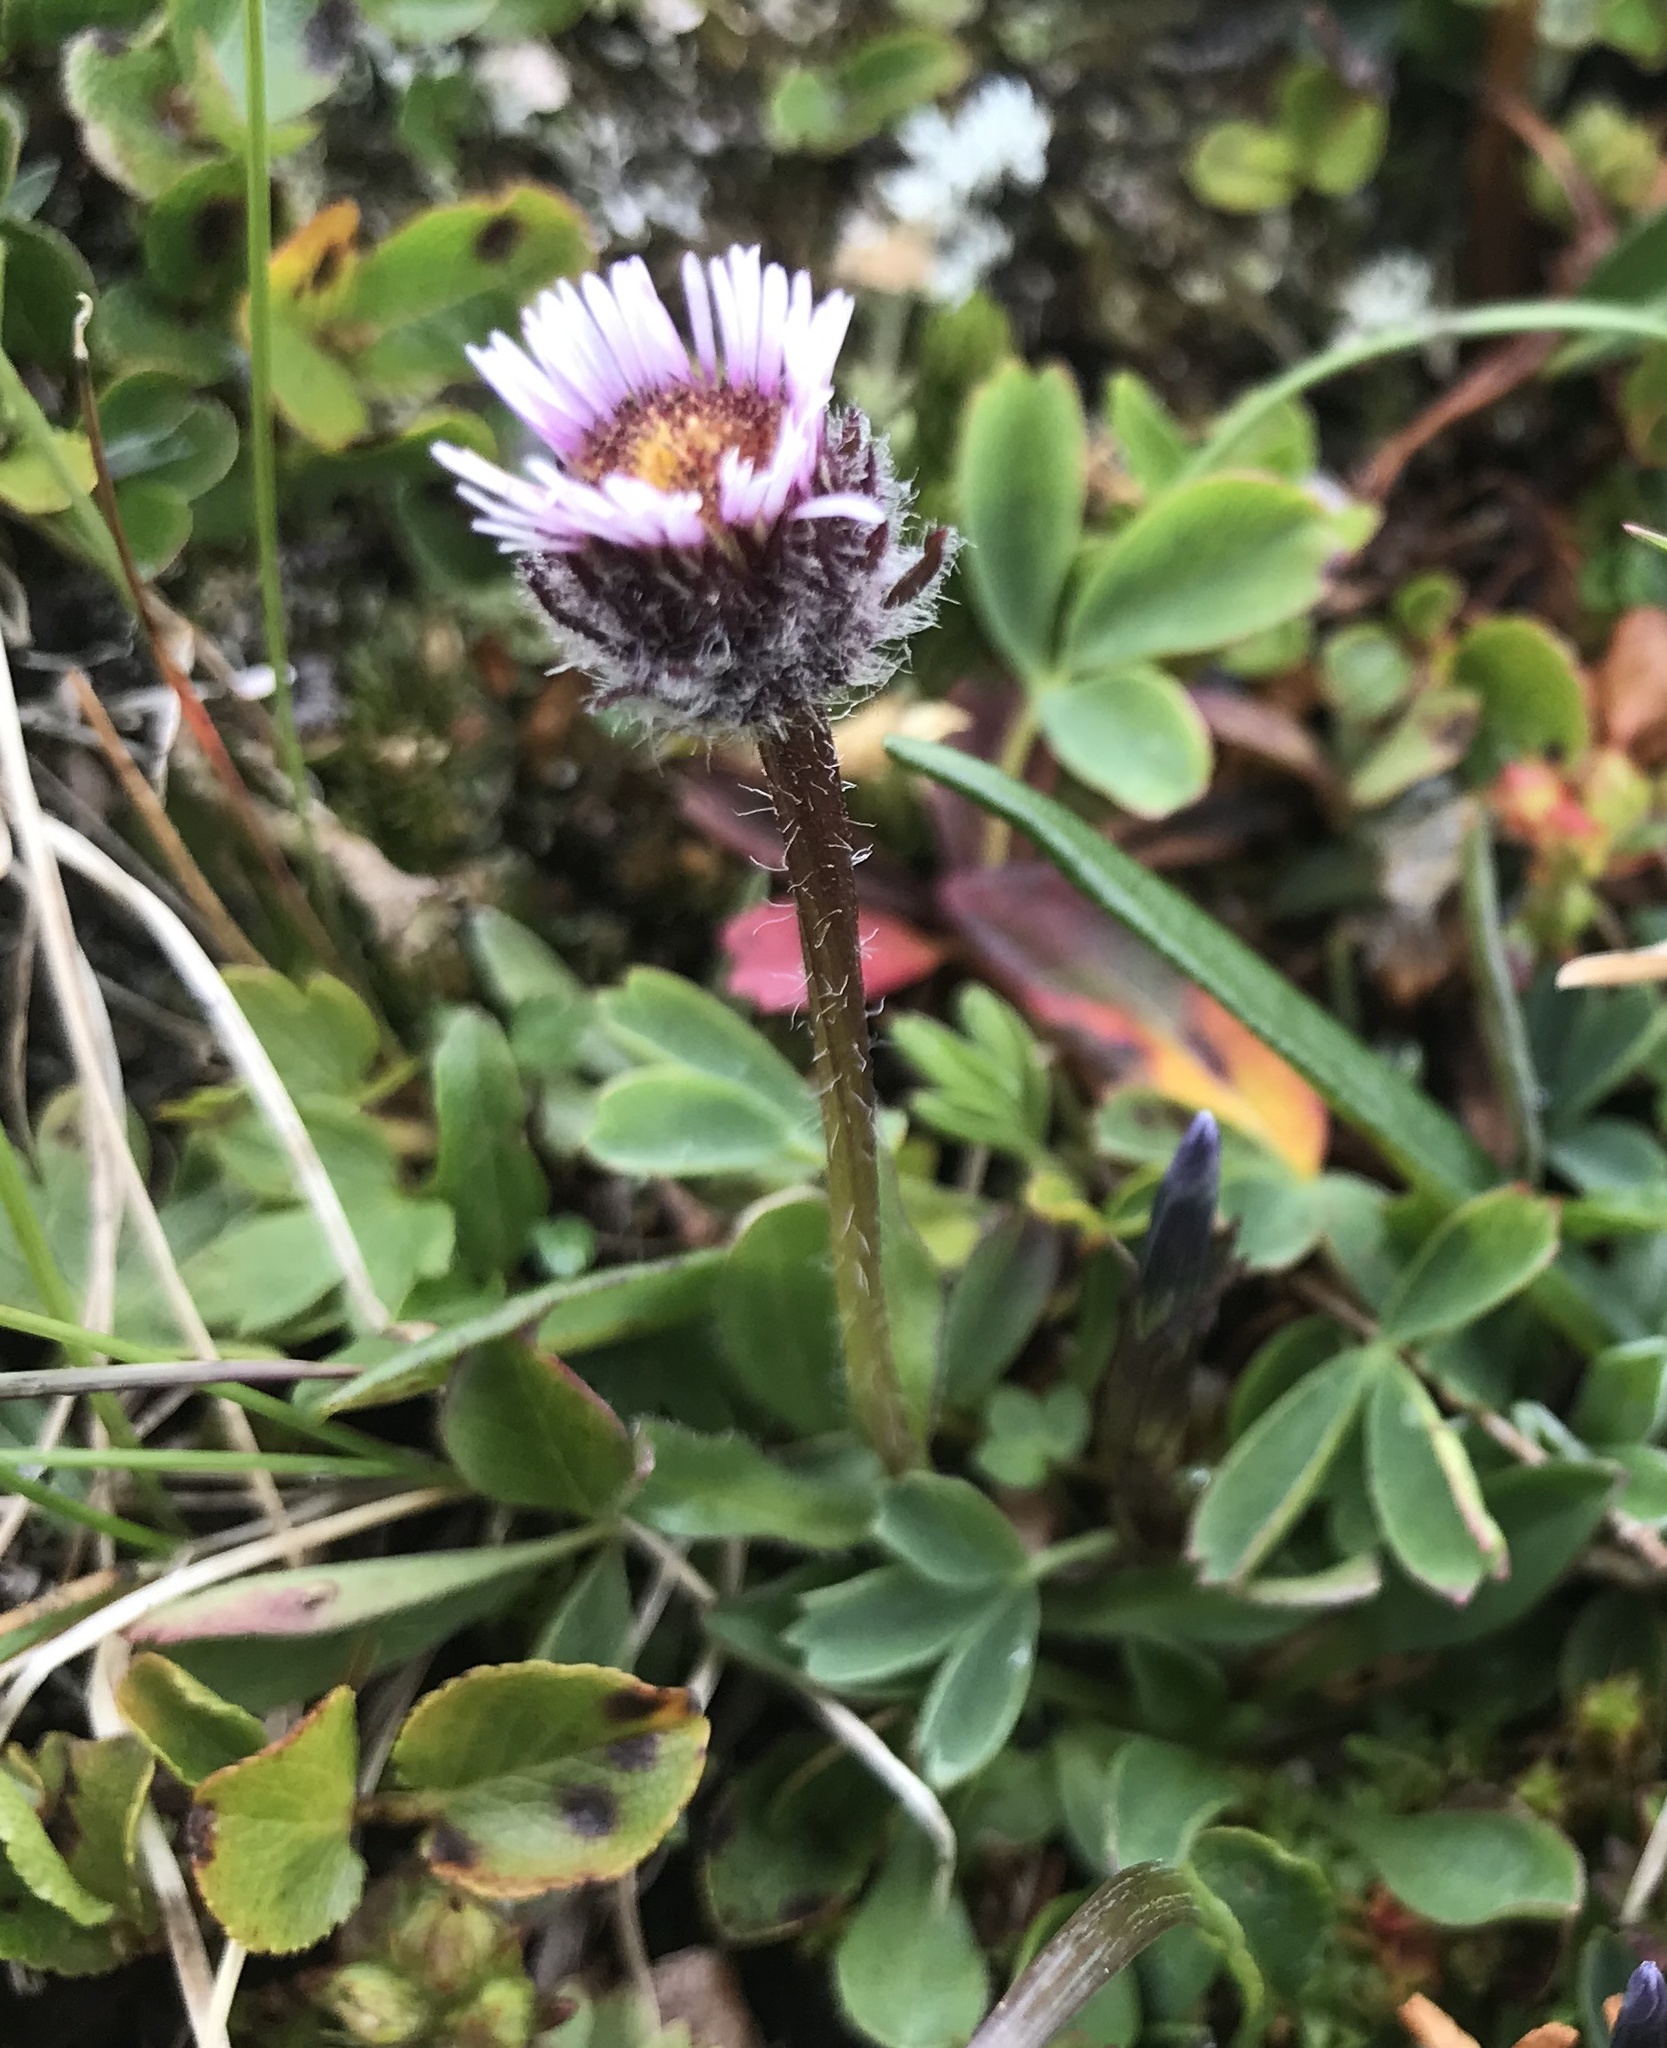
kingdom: Plantae
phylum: Tracheophyta
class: Magnoliopsida
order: Asterales
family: Asteraceae
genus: Erigeron
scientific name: Erigeron uniflorus
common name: Northern daisy
